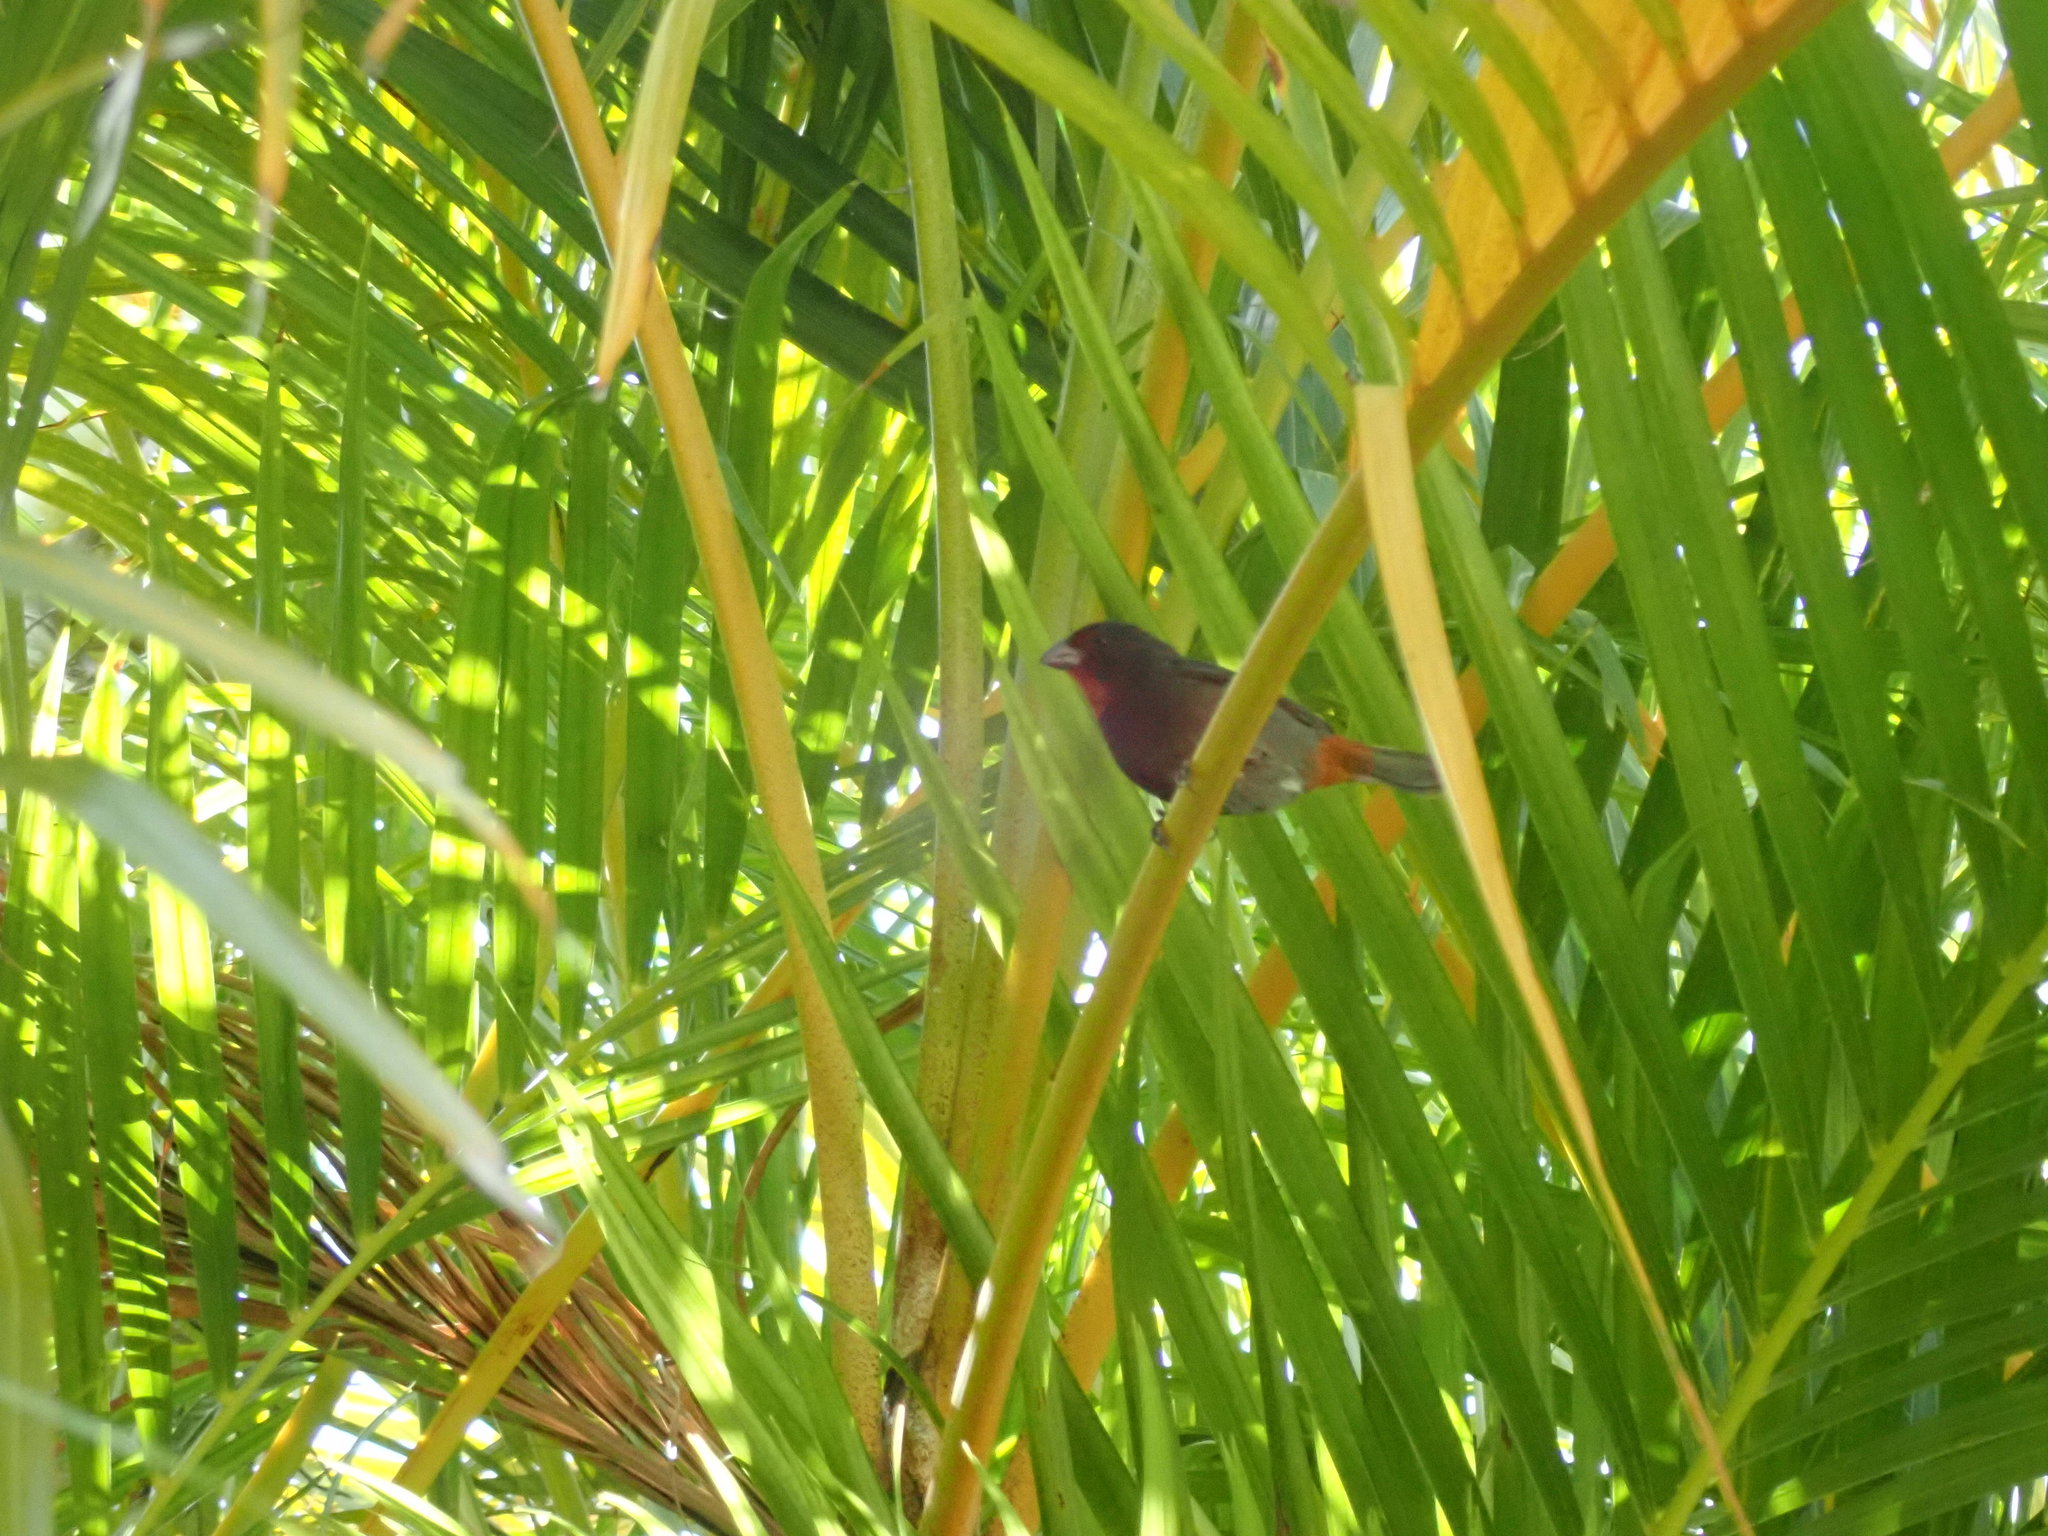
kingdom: Animalia
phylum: Chordata
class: Aves
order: Passeriformes
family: Thraupidae
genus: Loxigilla
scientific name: Loxigilla noctis
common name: Lesser antillean bullfinch
